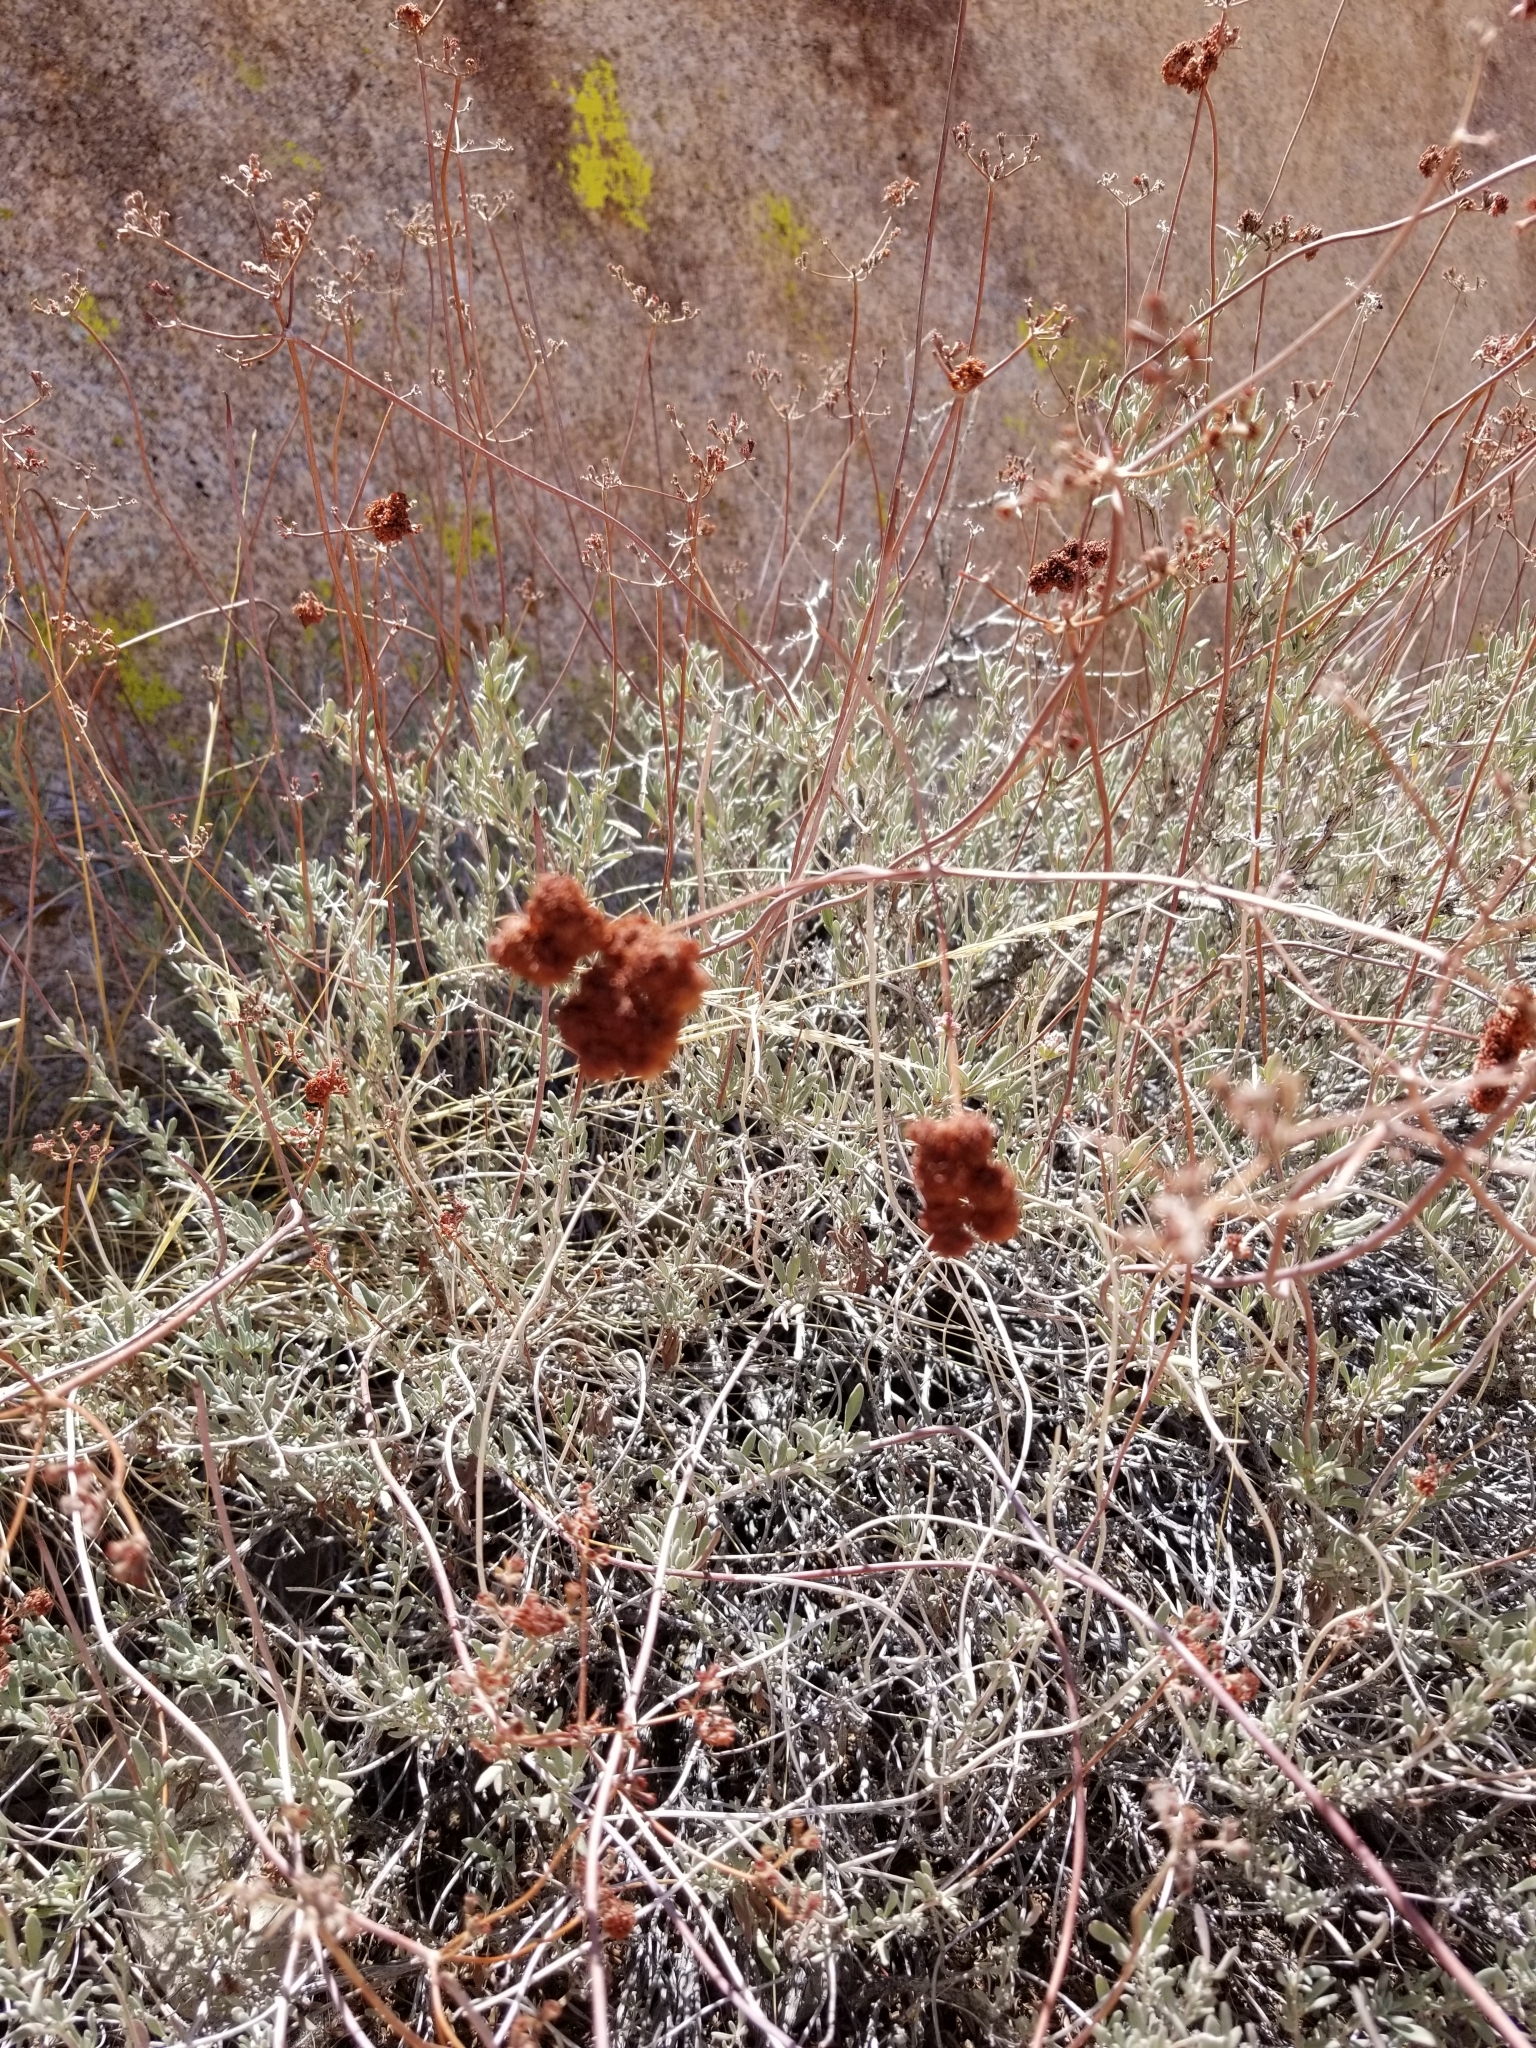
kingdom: Plantae
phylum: Tracheophyta
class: Magnoliopsida
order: Caryophyllales
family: Polygonaceae
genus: Eriogonum
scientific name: Eriogonum fasciculatum
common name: California wild buckwheat
